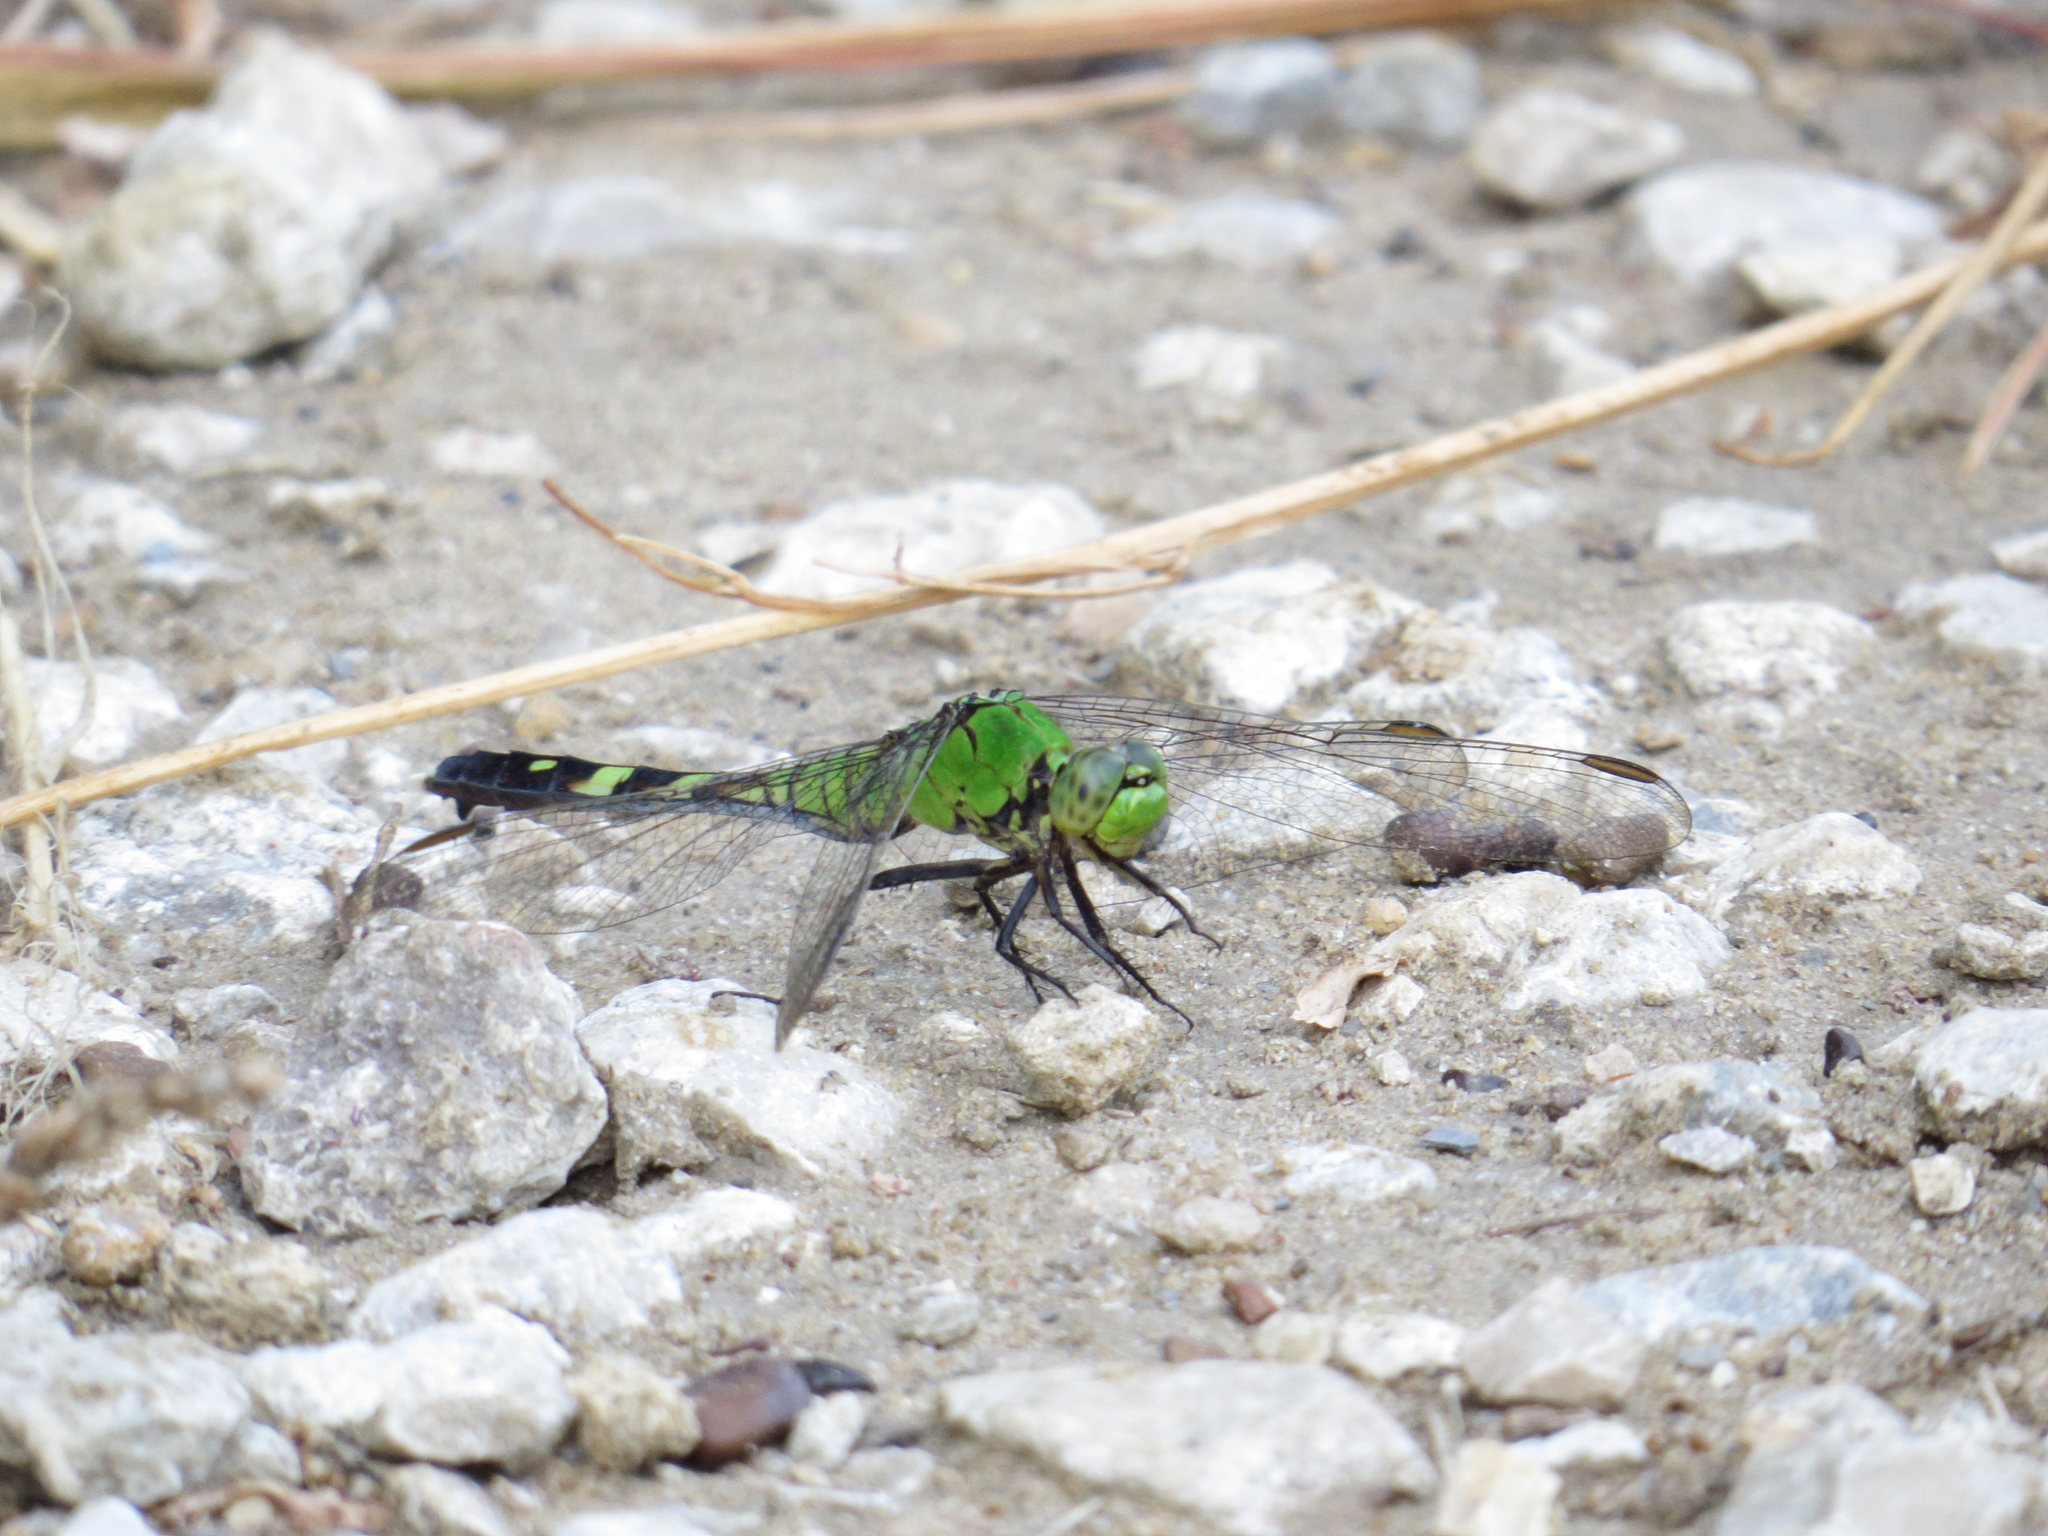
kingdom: Animalia
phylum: Arthropoda
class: Insecta
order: Odonata
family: Libellulidae
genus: Erythemis
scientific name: Erythemis simplicicollis
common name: Eastern pondhawk
